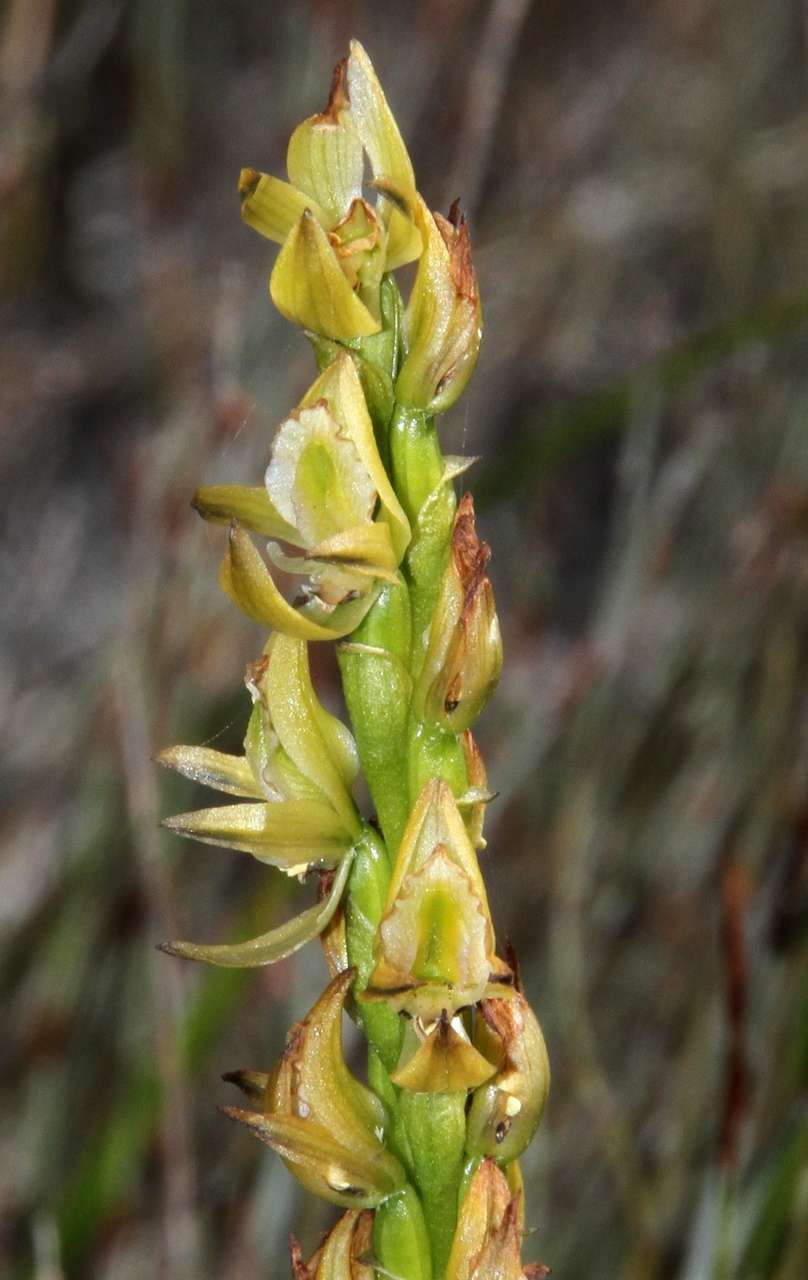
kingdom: Plantae
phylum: Tracheophyta
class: Liliopsida
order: Asparagales
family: Orchidaceae
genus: Prasophyllum
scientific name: Prasophyllum elatum
